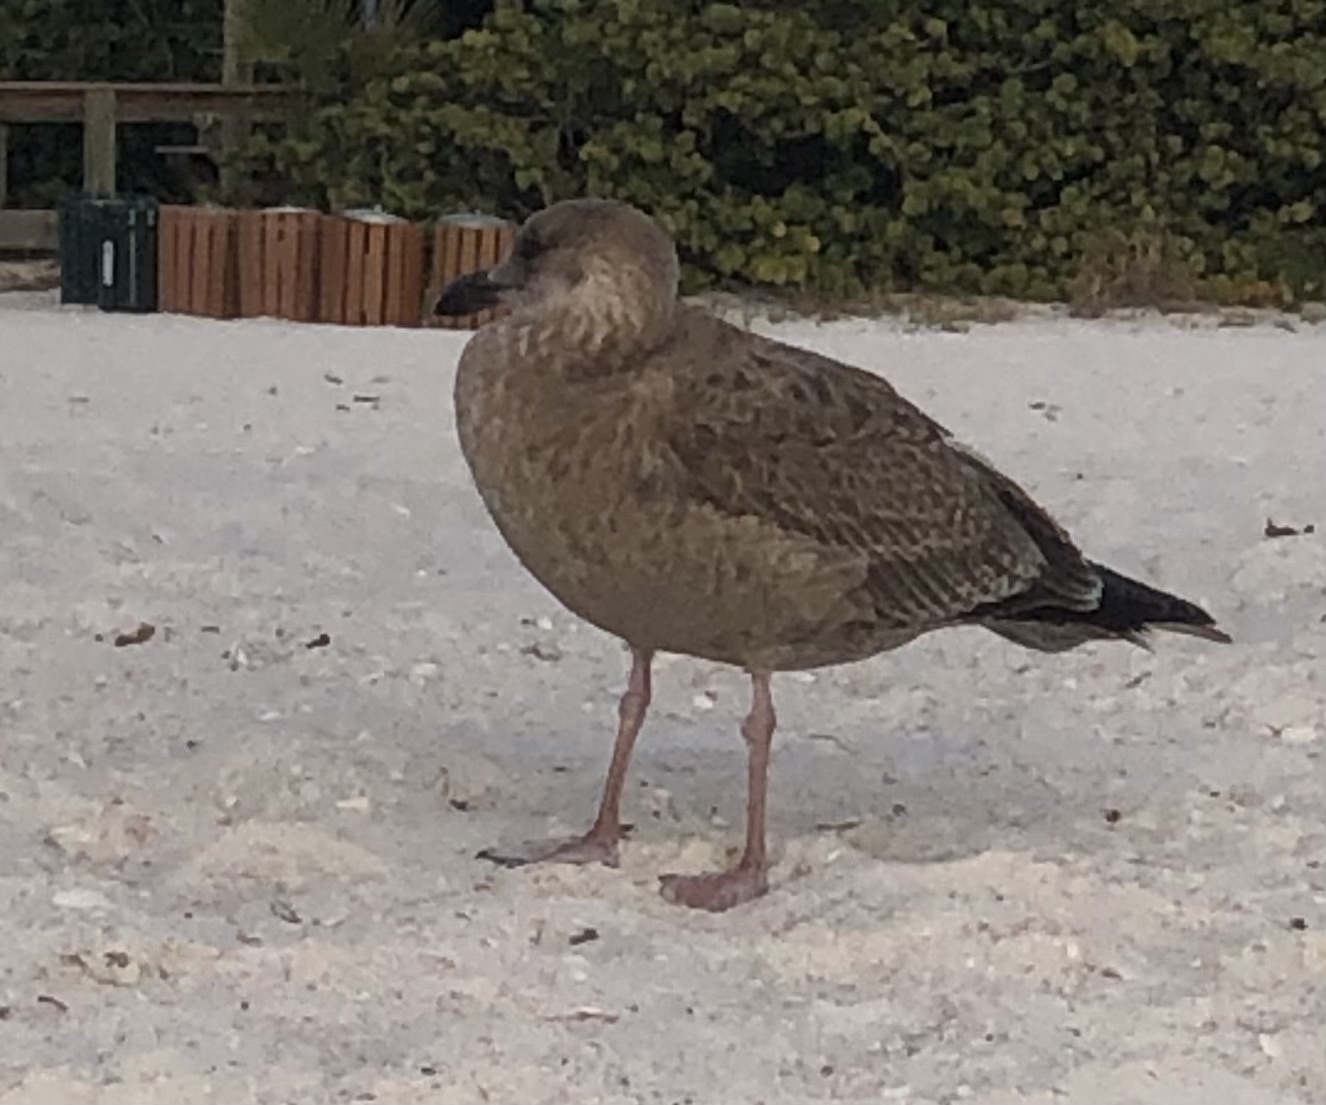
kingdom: Animalia
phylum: Chordata
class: Aves
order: Charadriiformes
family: Laridae
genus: Larus
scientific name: Larus argentatus
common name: Herring gull
